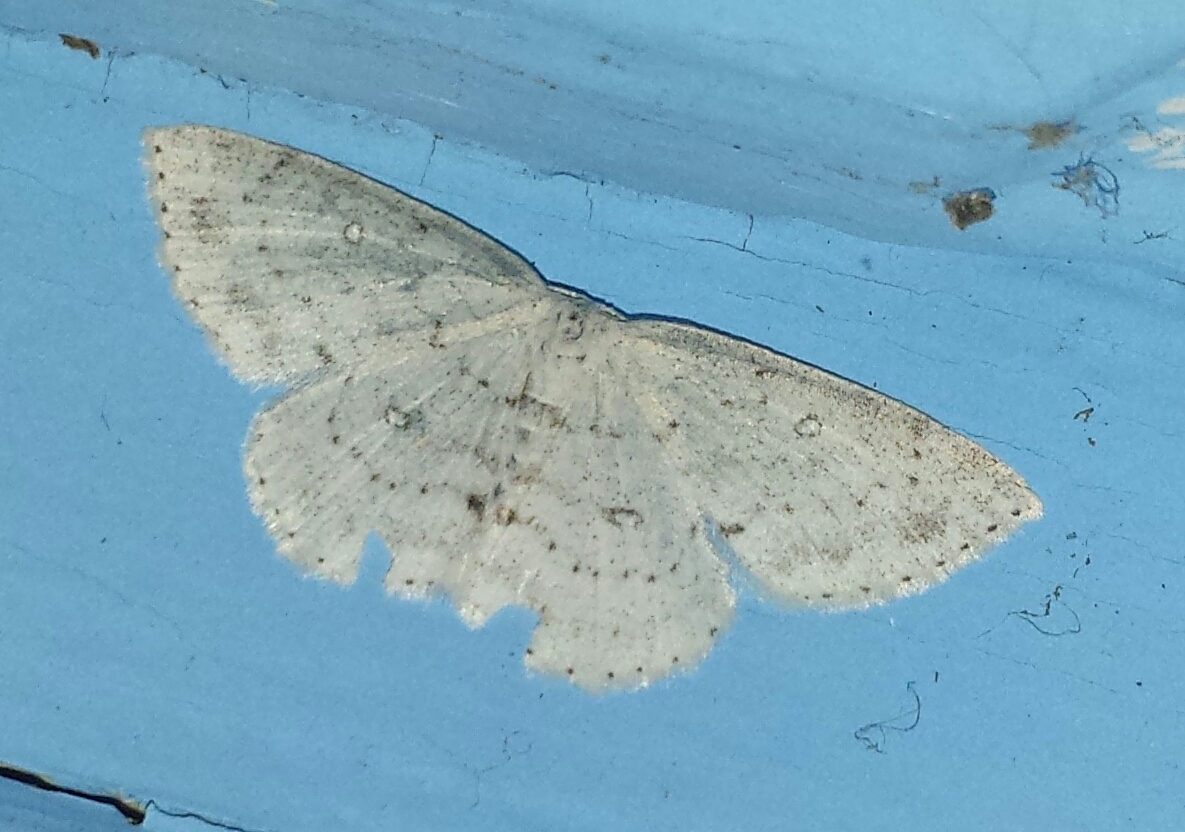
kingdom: Animalia
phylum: Arthropoda
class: Insecta
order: Lepidoptera
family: Geometridae
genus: Cyclophora
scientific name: Cyclophora pendulinaria
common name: Sweet fern geometer
